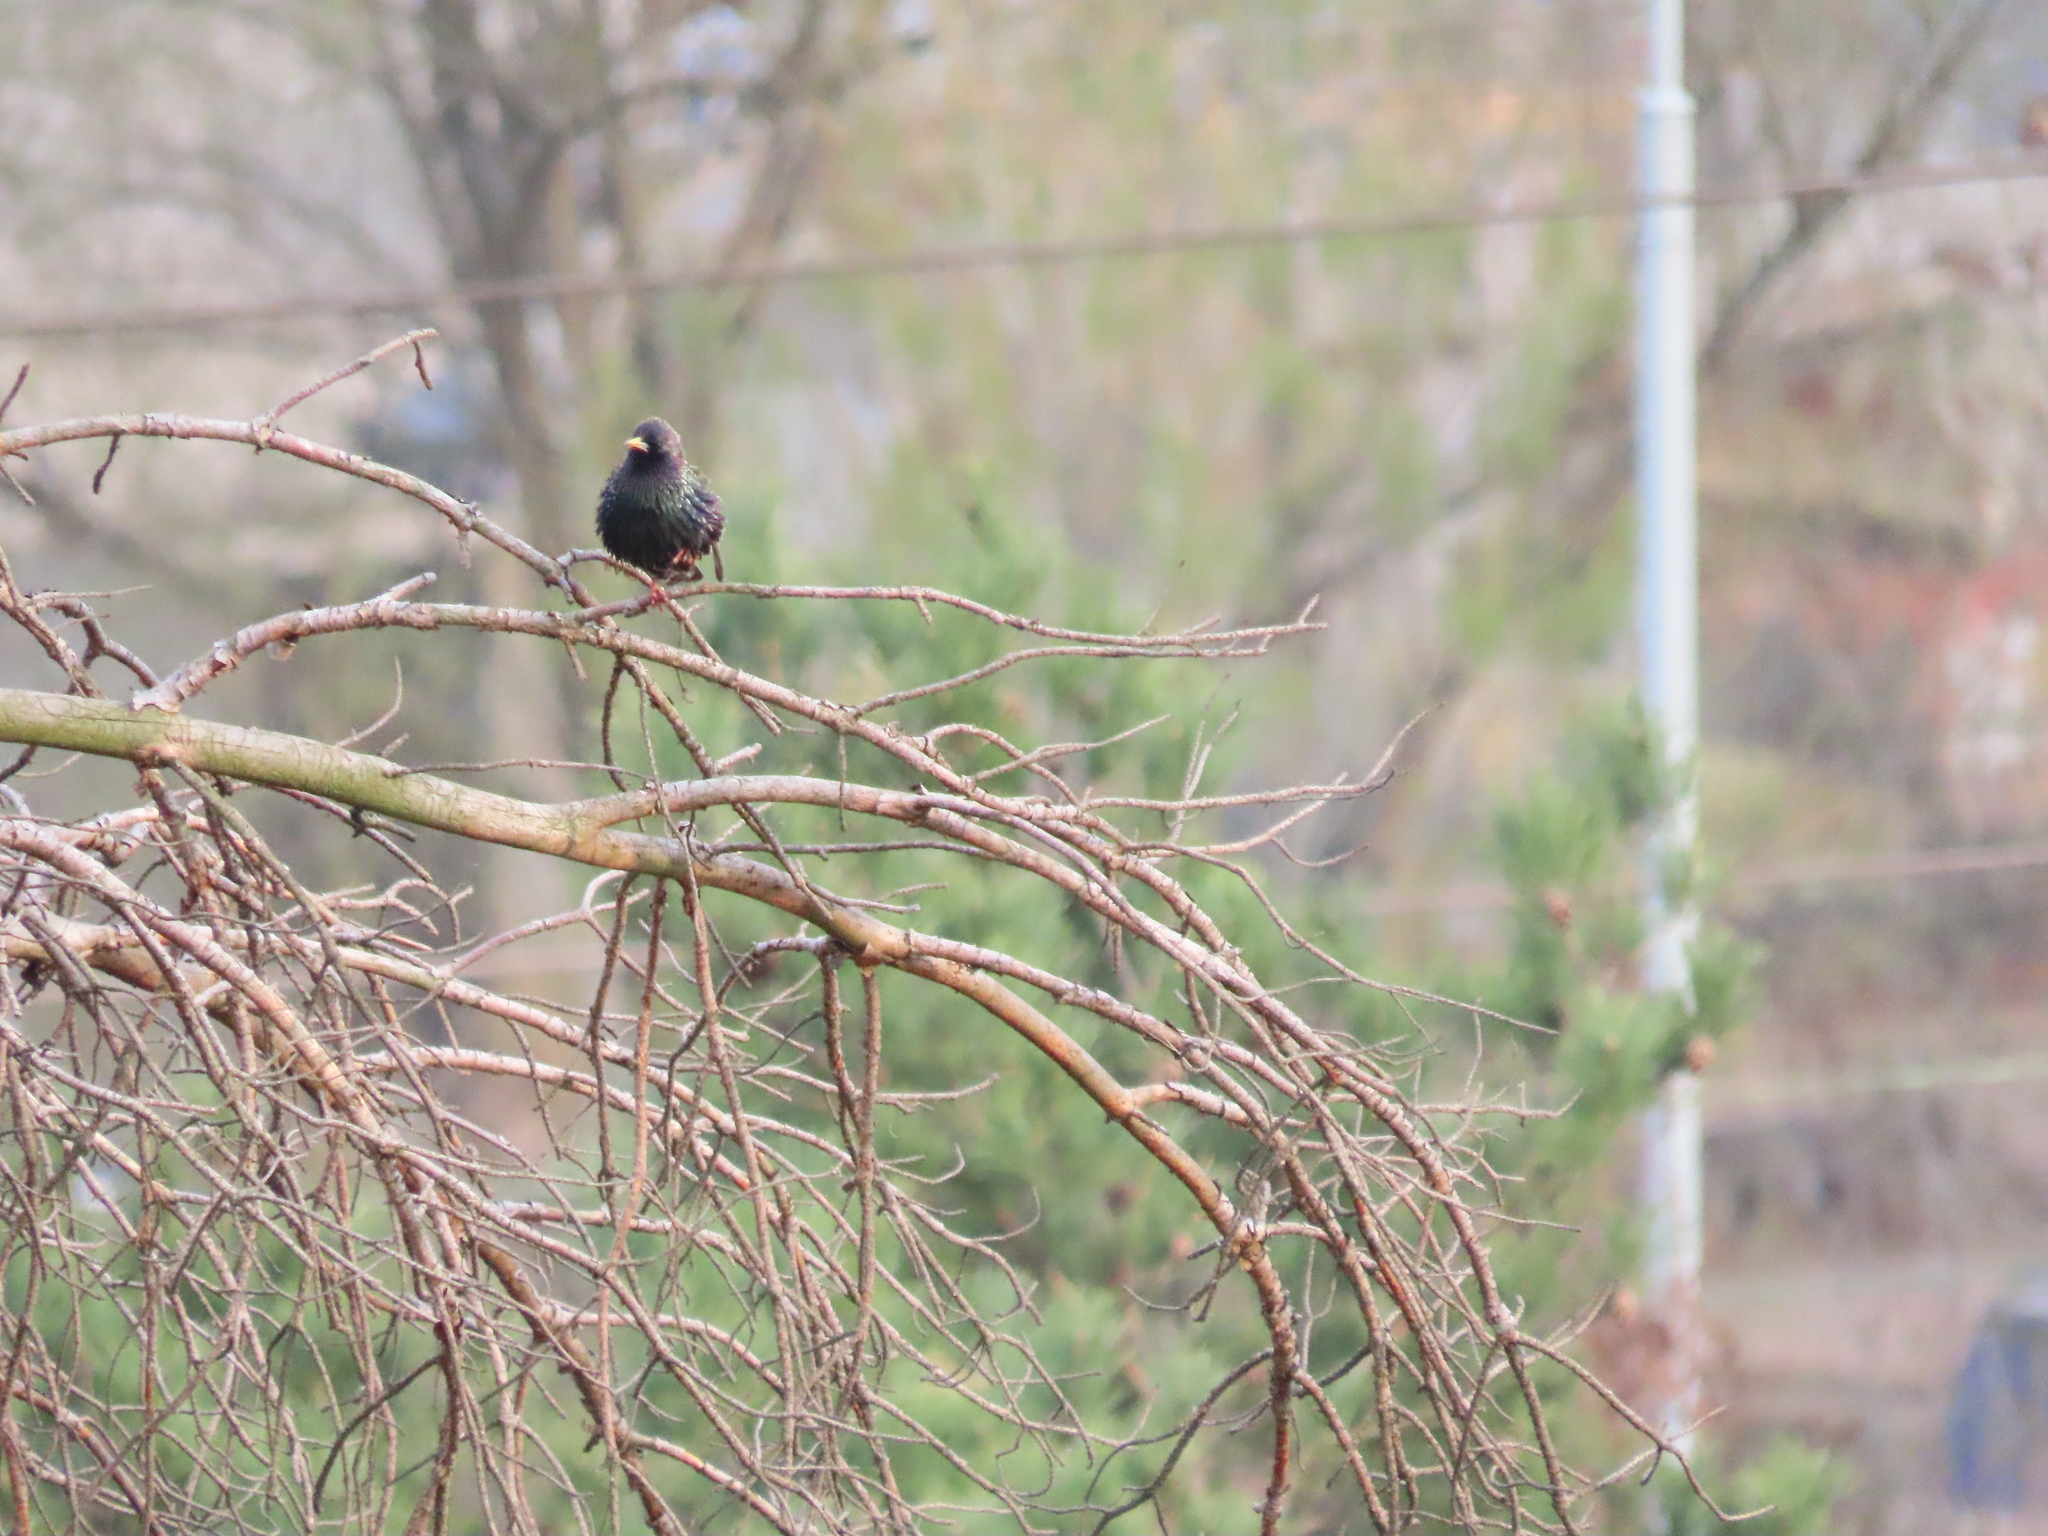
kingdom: Animalia
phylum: Chordata
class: Aves
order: Passeriformes
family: Sturnidae
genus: Sturnus
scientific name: Sturnus vulgaris
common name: Common starling
